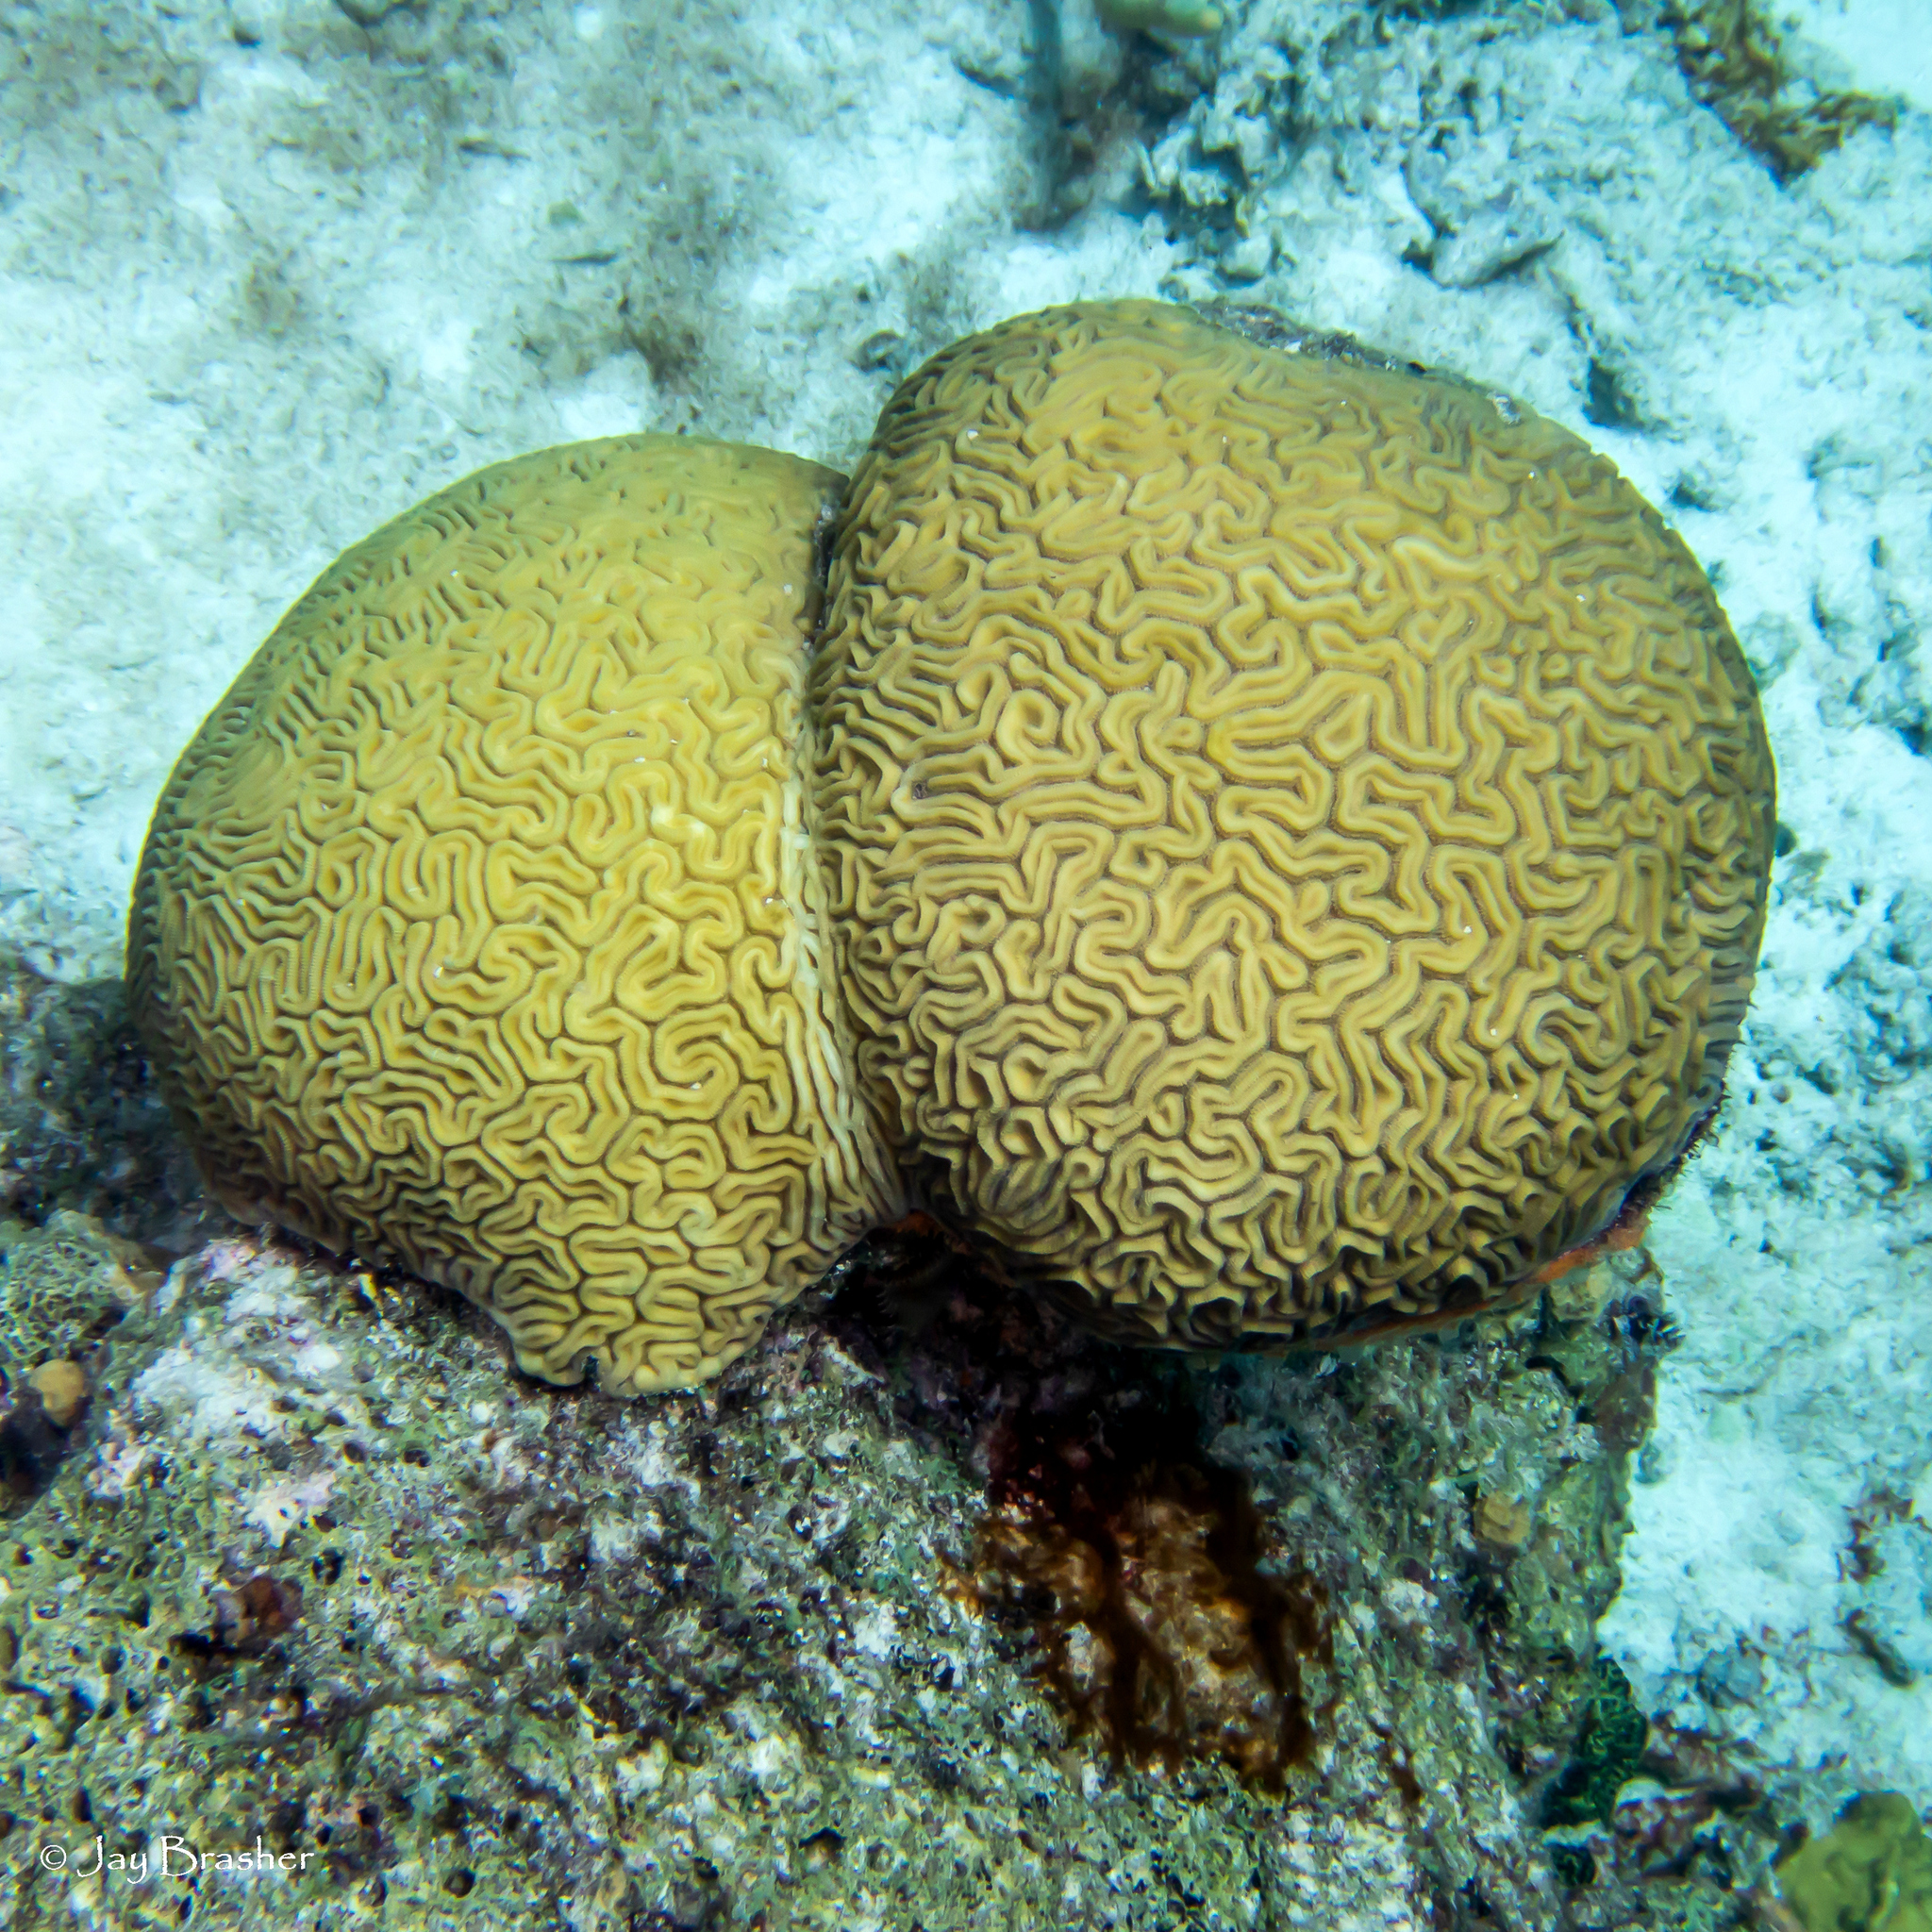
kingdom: Animalia
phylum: Cnidaria
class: Anthozoa
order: Scleractinia
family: Faviidae
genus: Diploria
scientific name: Diploria labyrinthiformis
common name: Grooved brain coral
